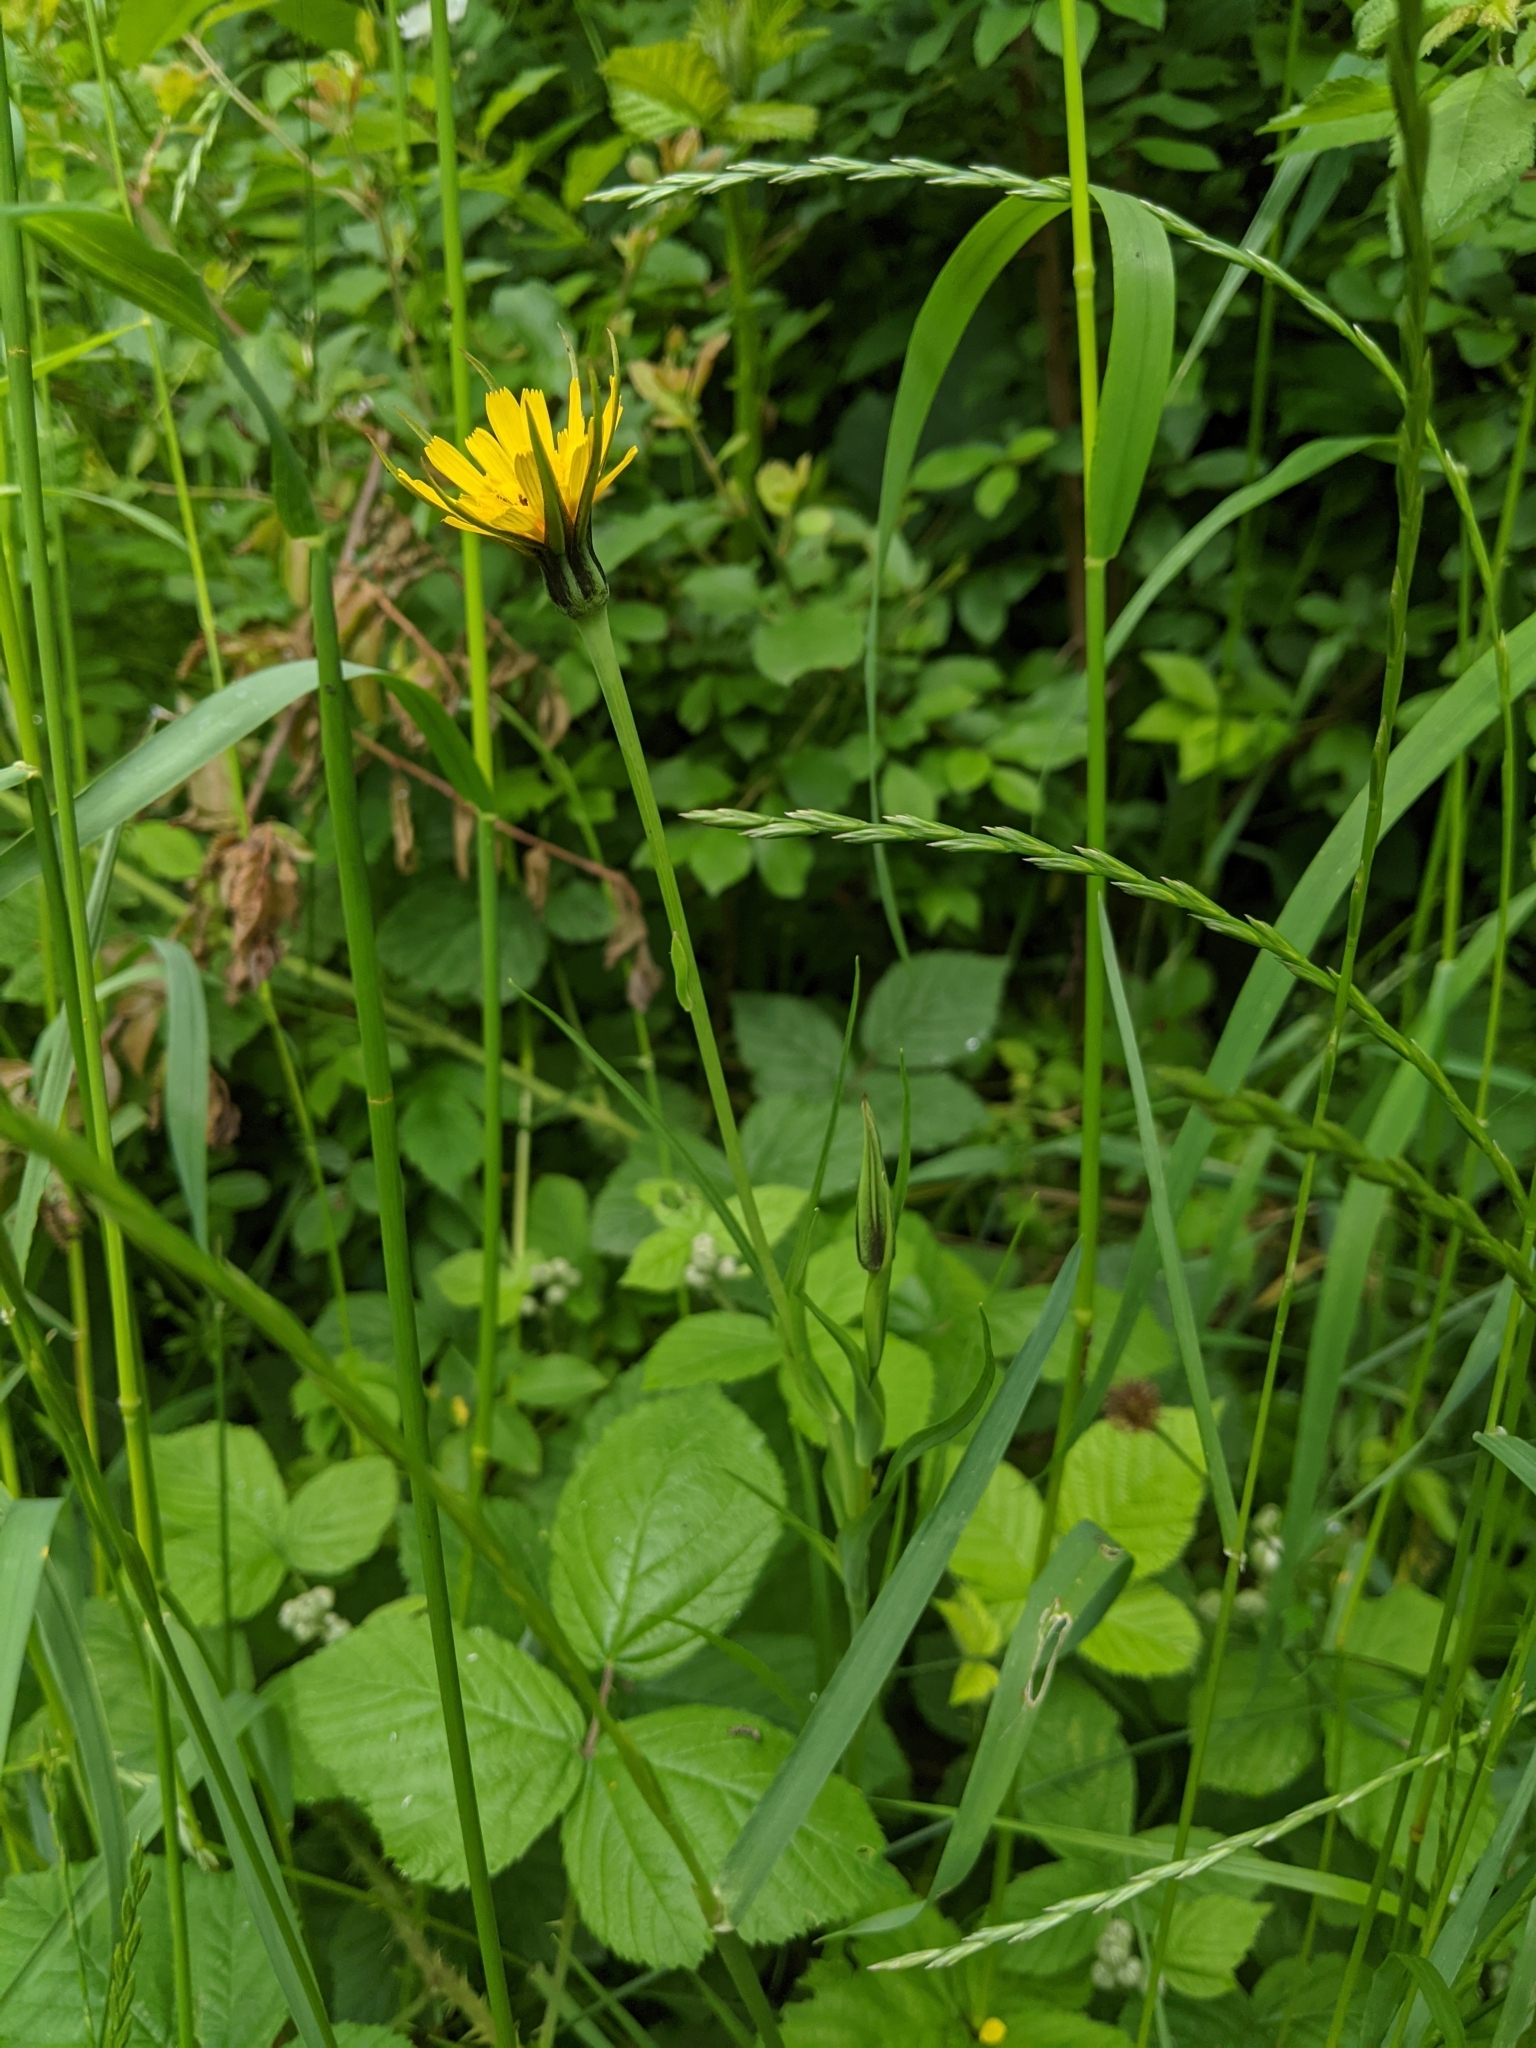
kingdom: Plantae
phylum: Tracheophyta
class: Magnoliopsida
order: Asterales
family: Asteraceae
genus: Tragopogon
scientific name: Tragopogon pratensis
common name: Goat's-beard
